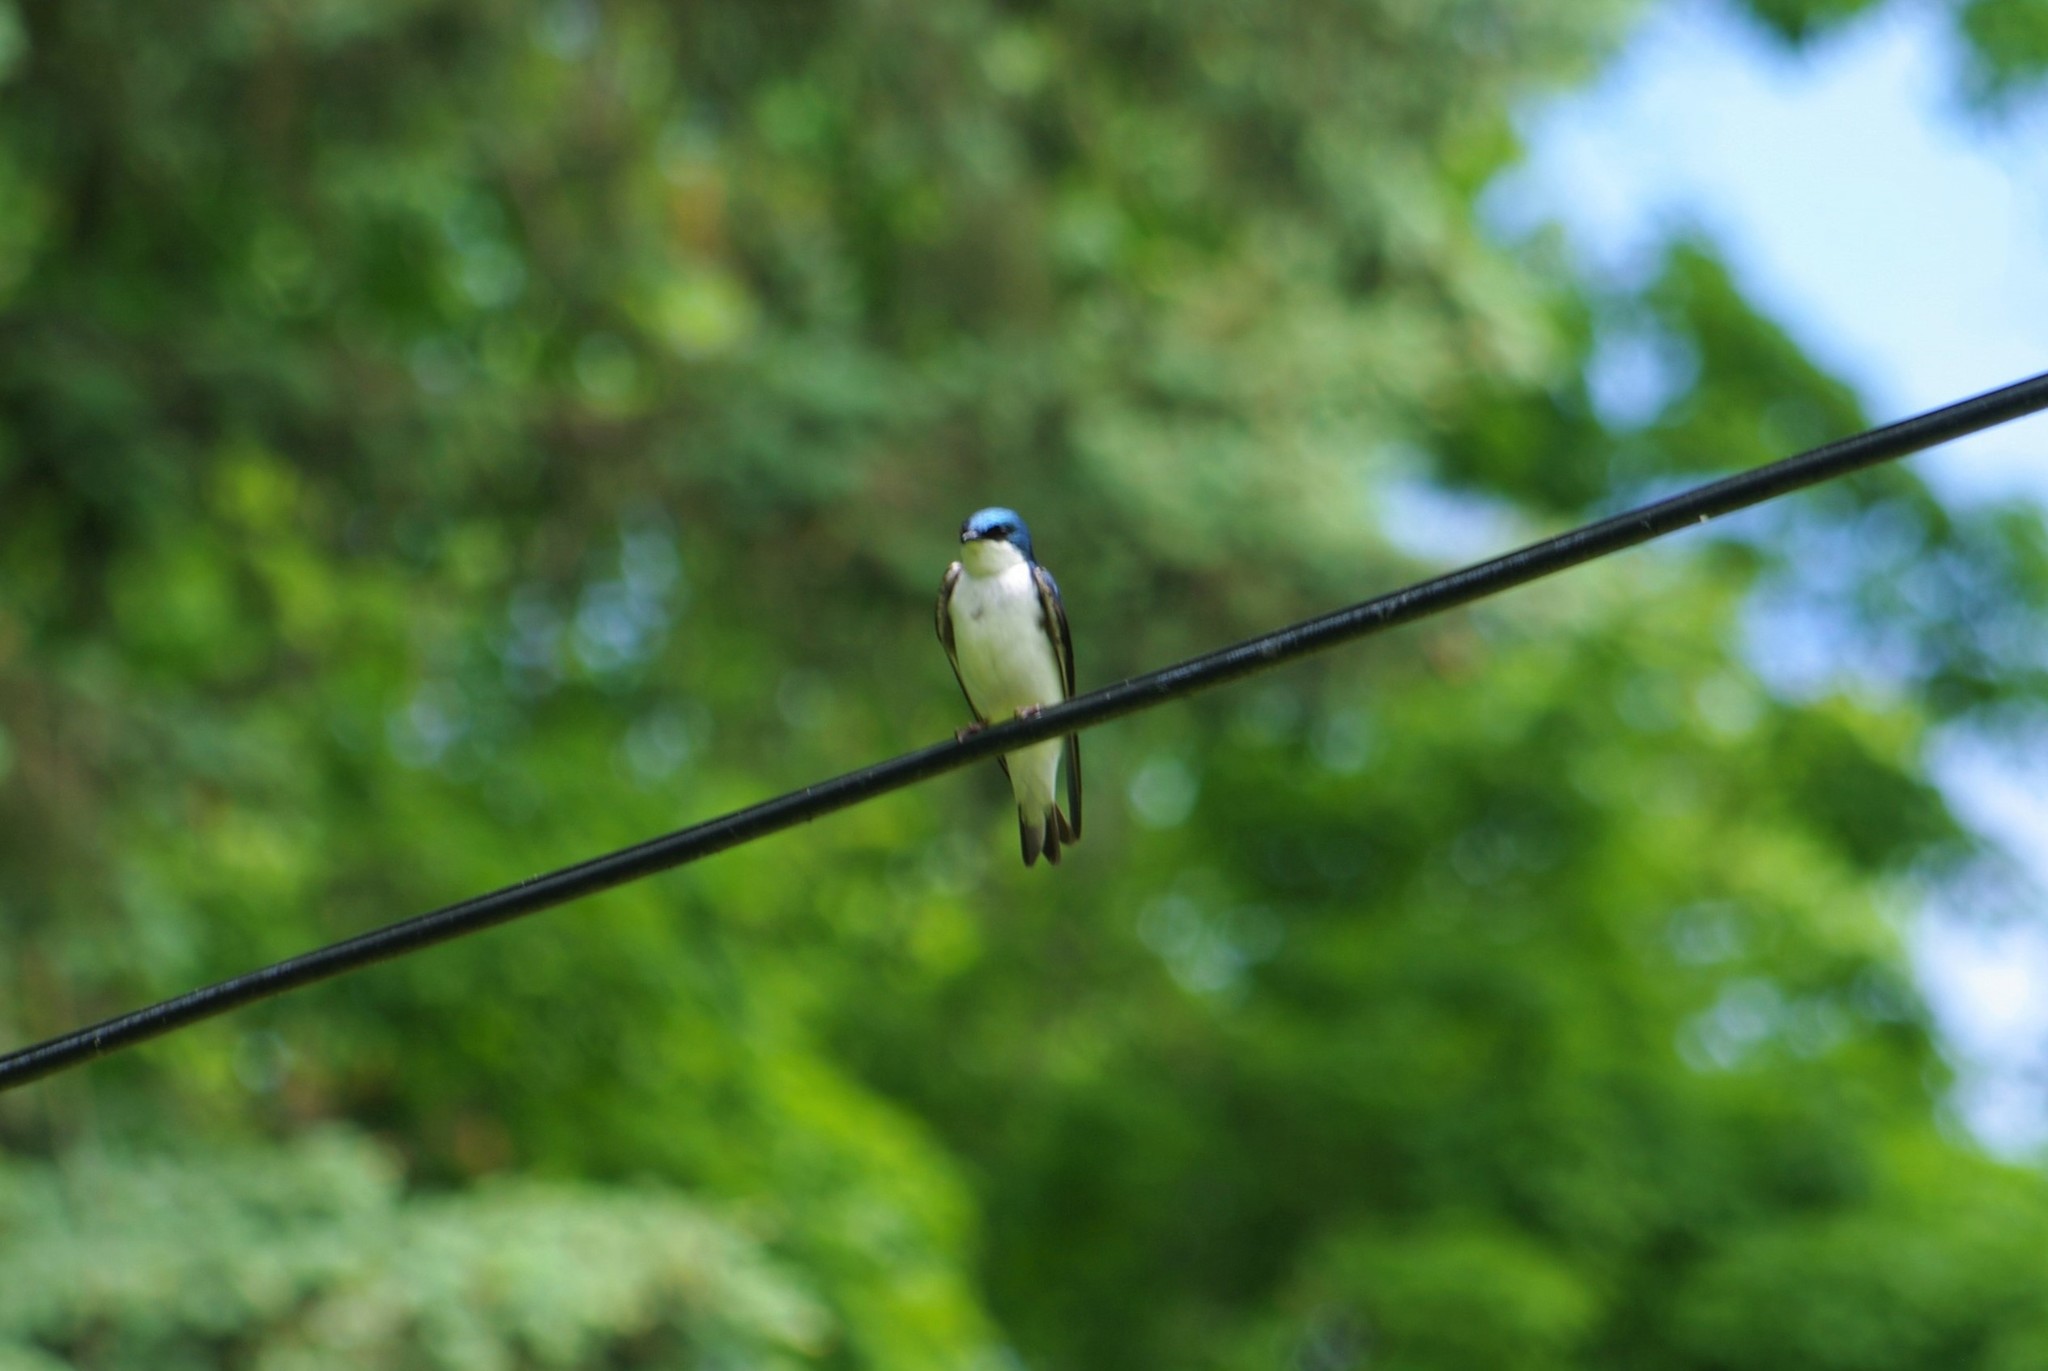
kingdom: Animalia
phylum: Chordata
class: Aves
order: Passeriformes
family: Hirundinidae
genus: Tachycineta
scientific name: Tachycineta bicolor
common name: Tree swallow
